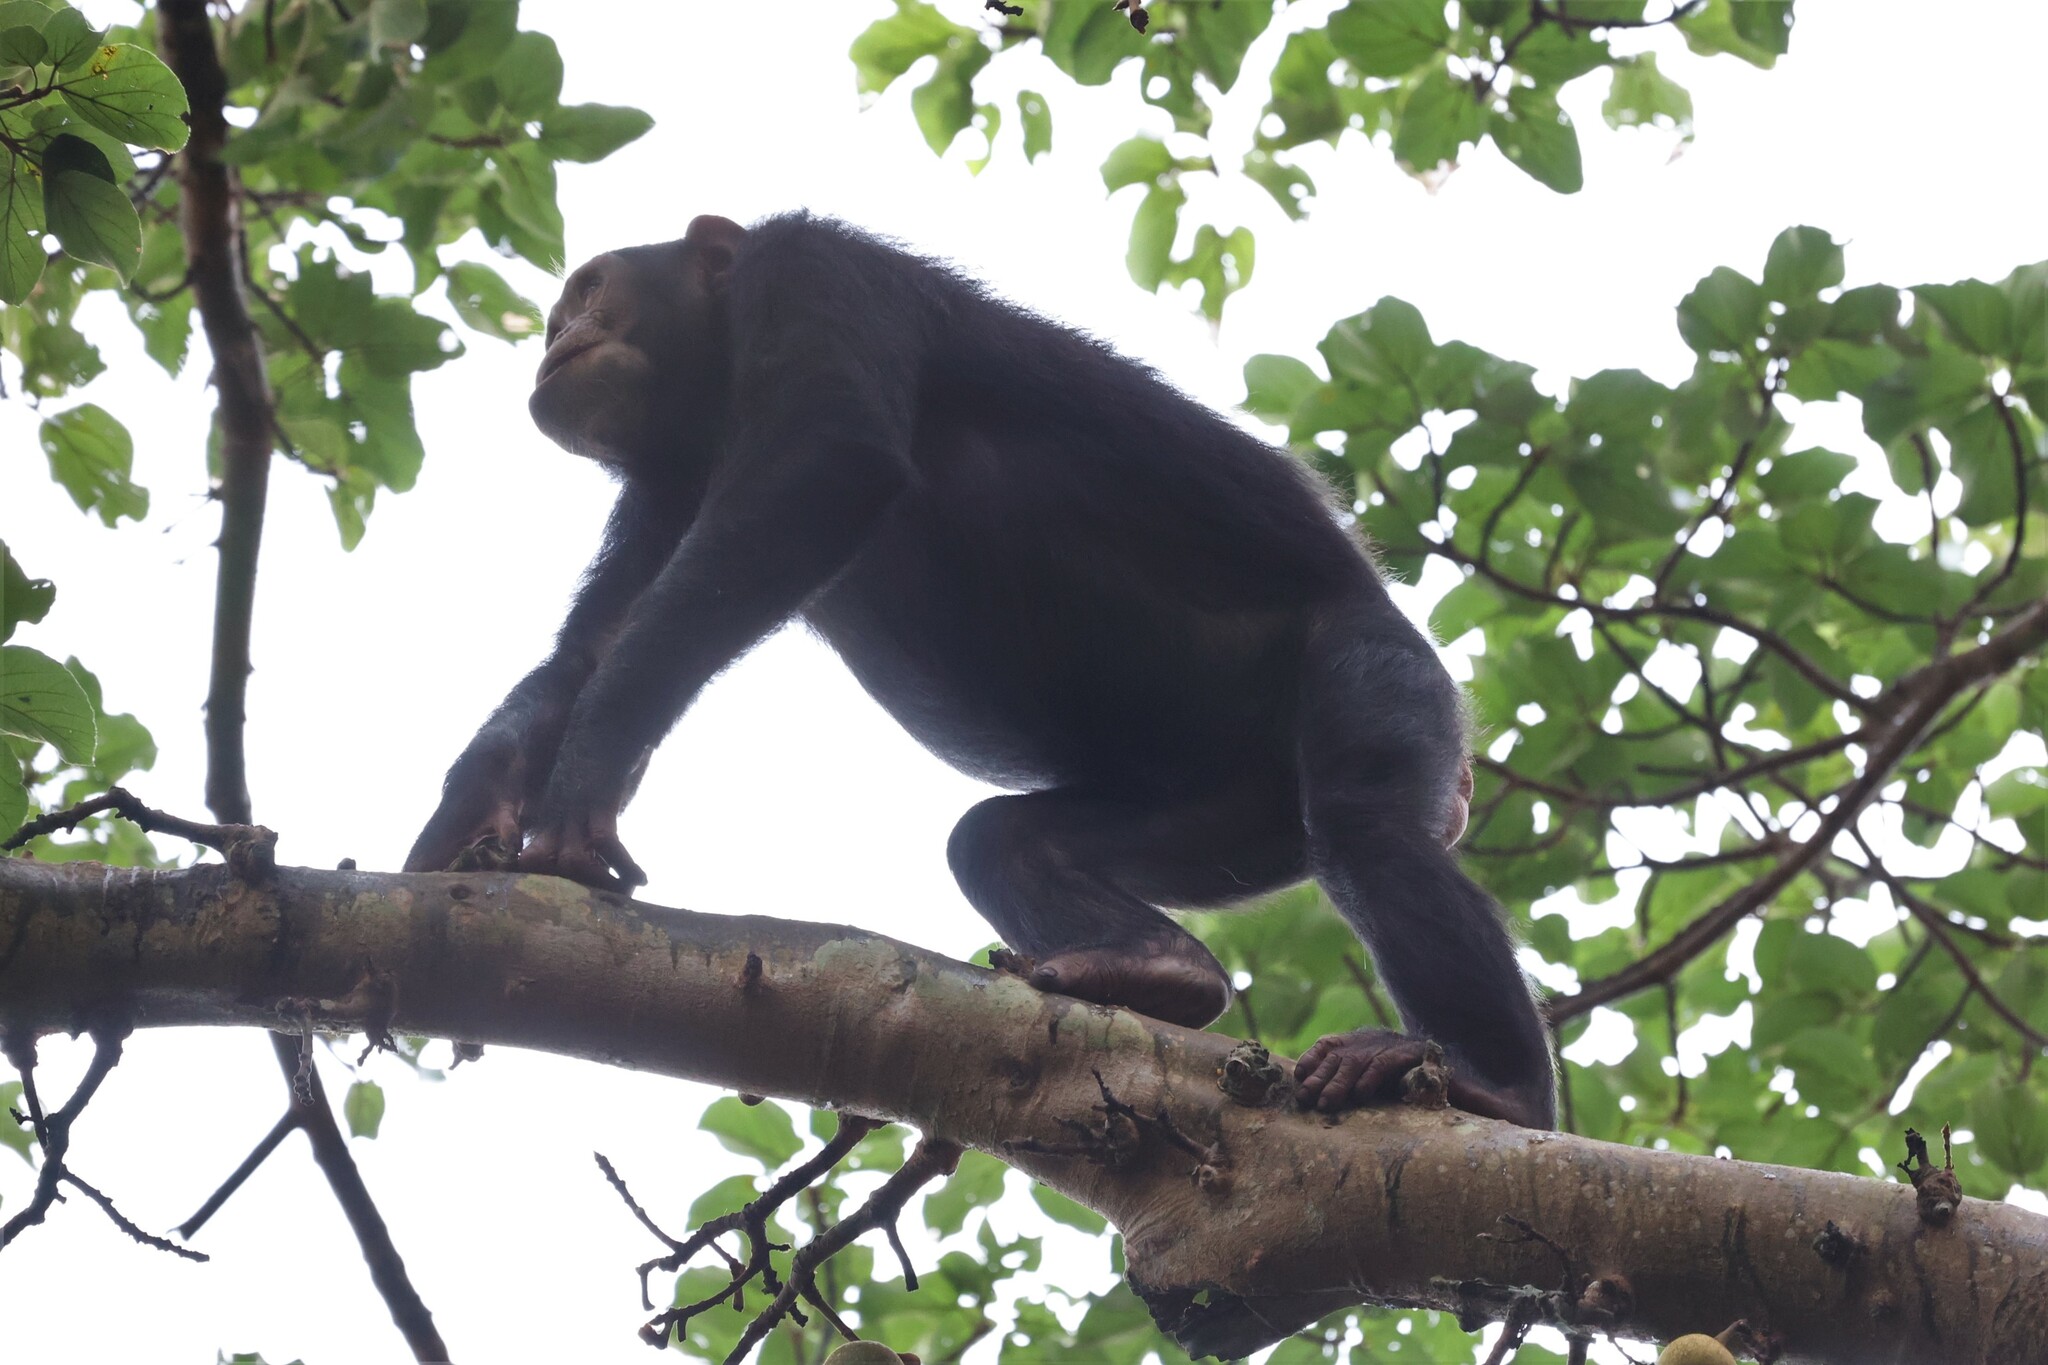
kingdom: Animalia
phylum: Chordata
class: Mammalia
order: Primates
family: Hominidae
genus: Pan
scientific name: Pan troglodytes
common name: Chimpanzee
